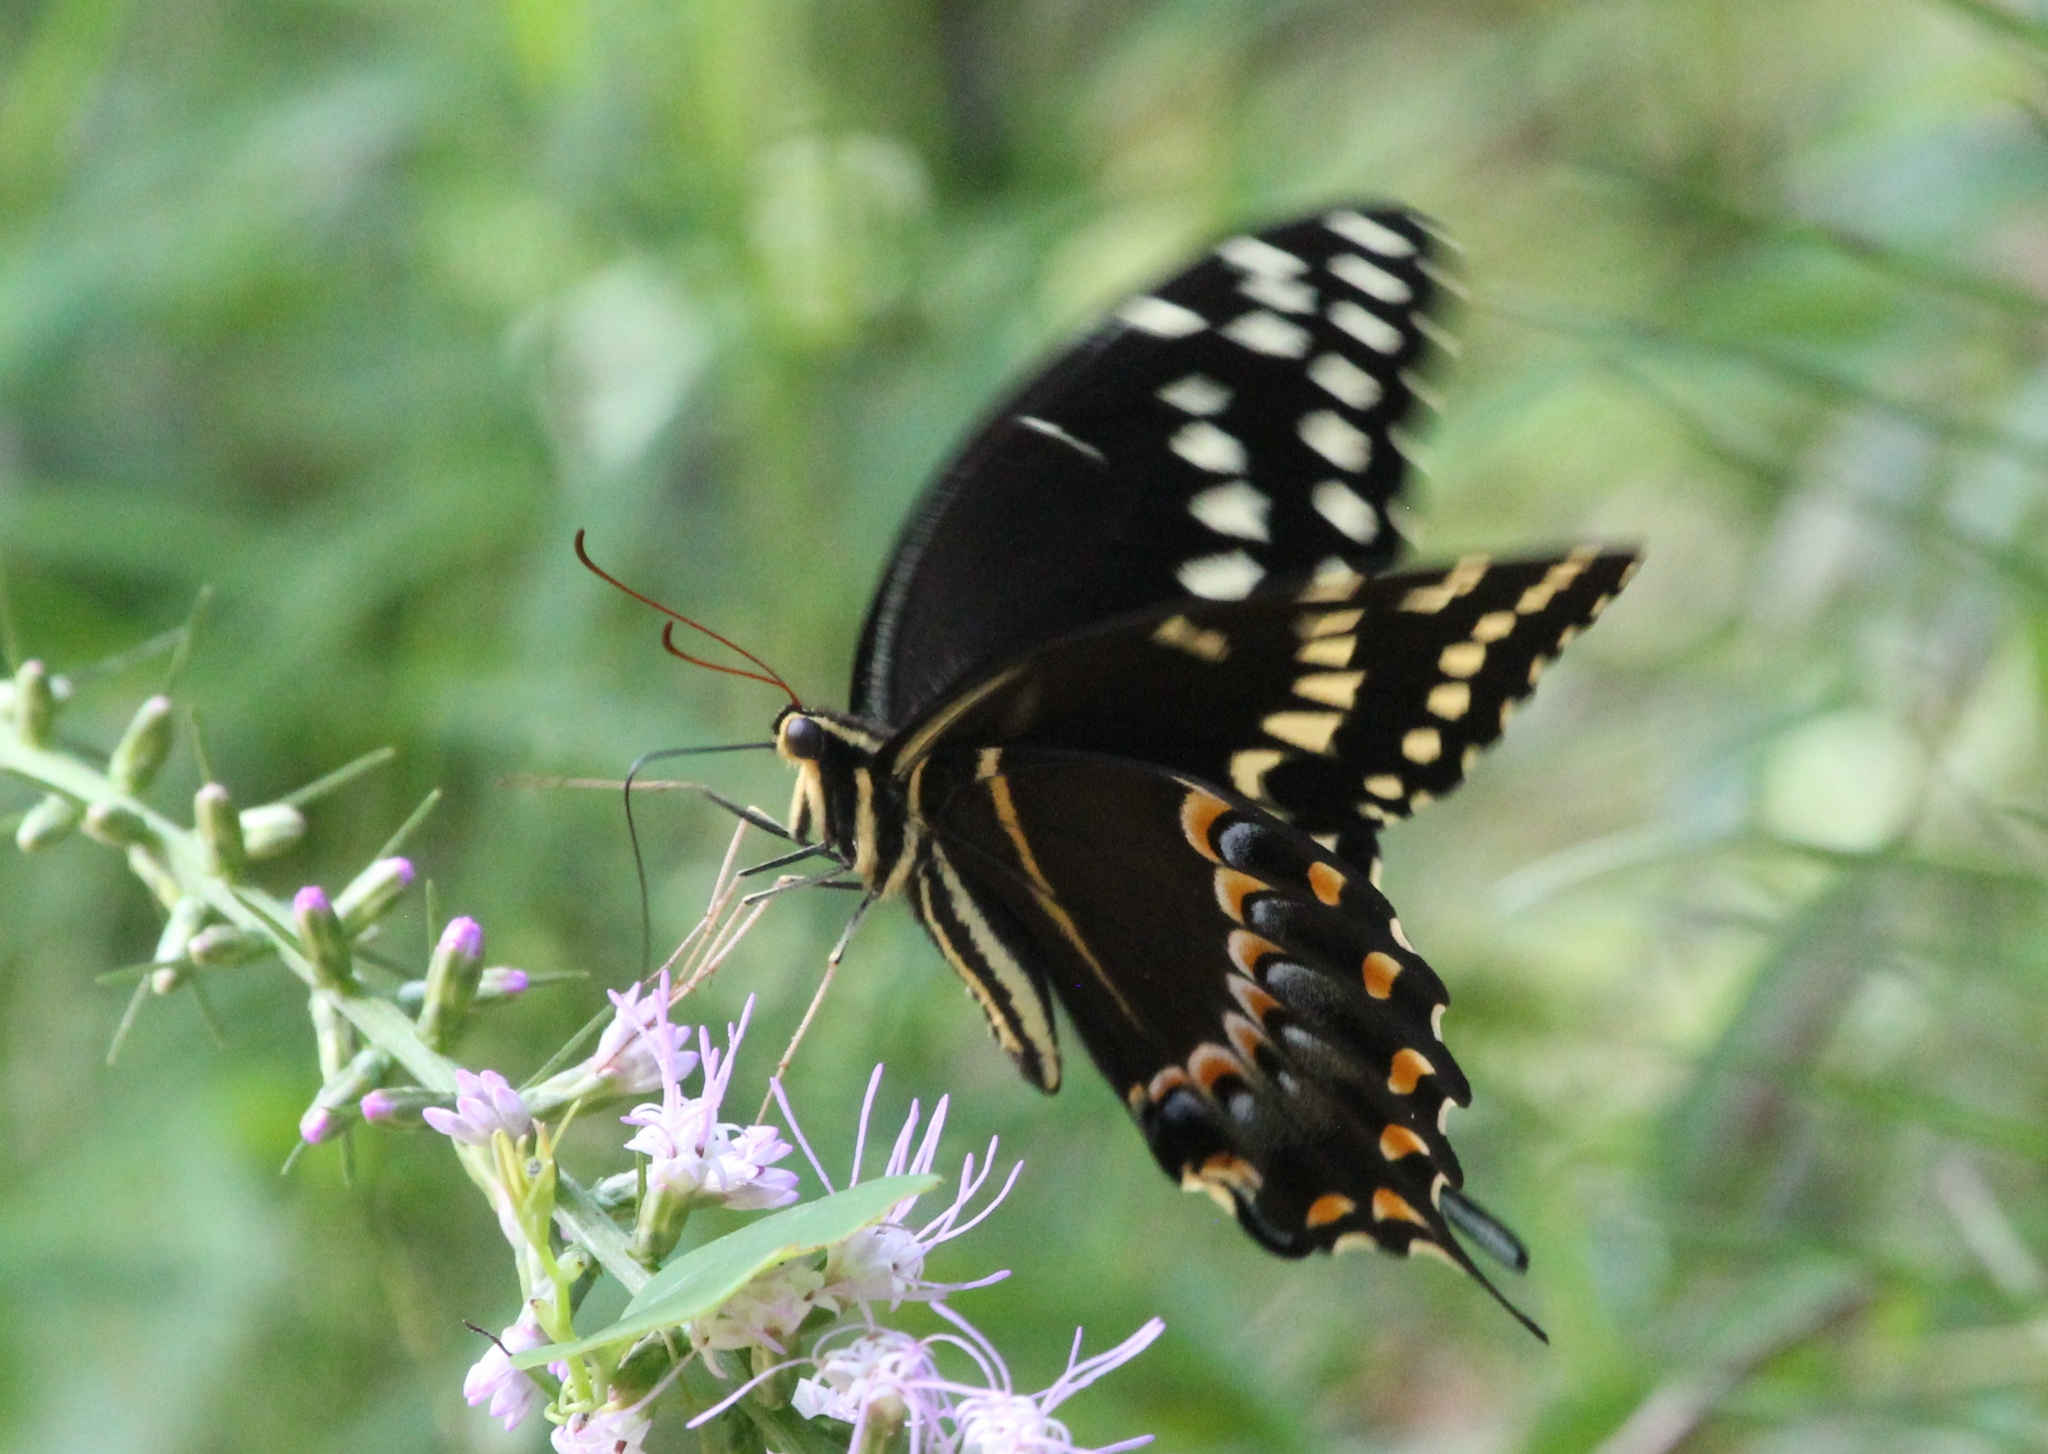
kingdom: Animalia
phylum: Arthropoda
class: Insecta
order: Lepidoptera
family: Papilionidae
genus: Papilio
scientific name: Papilio palamedes
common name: Palamedes swallowtail
